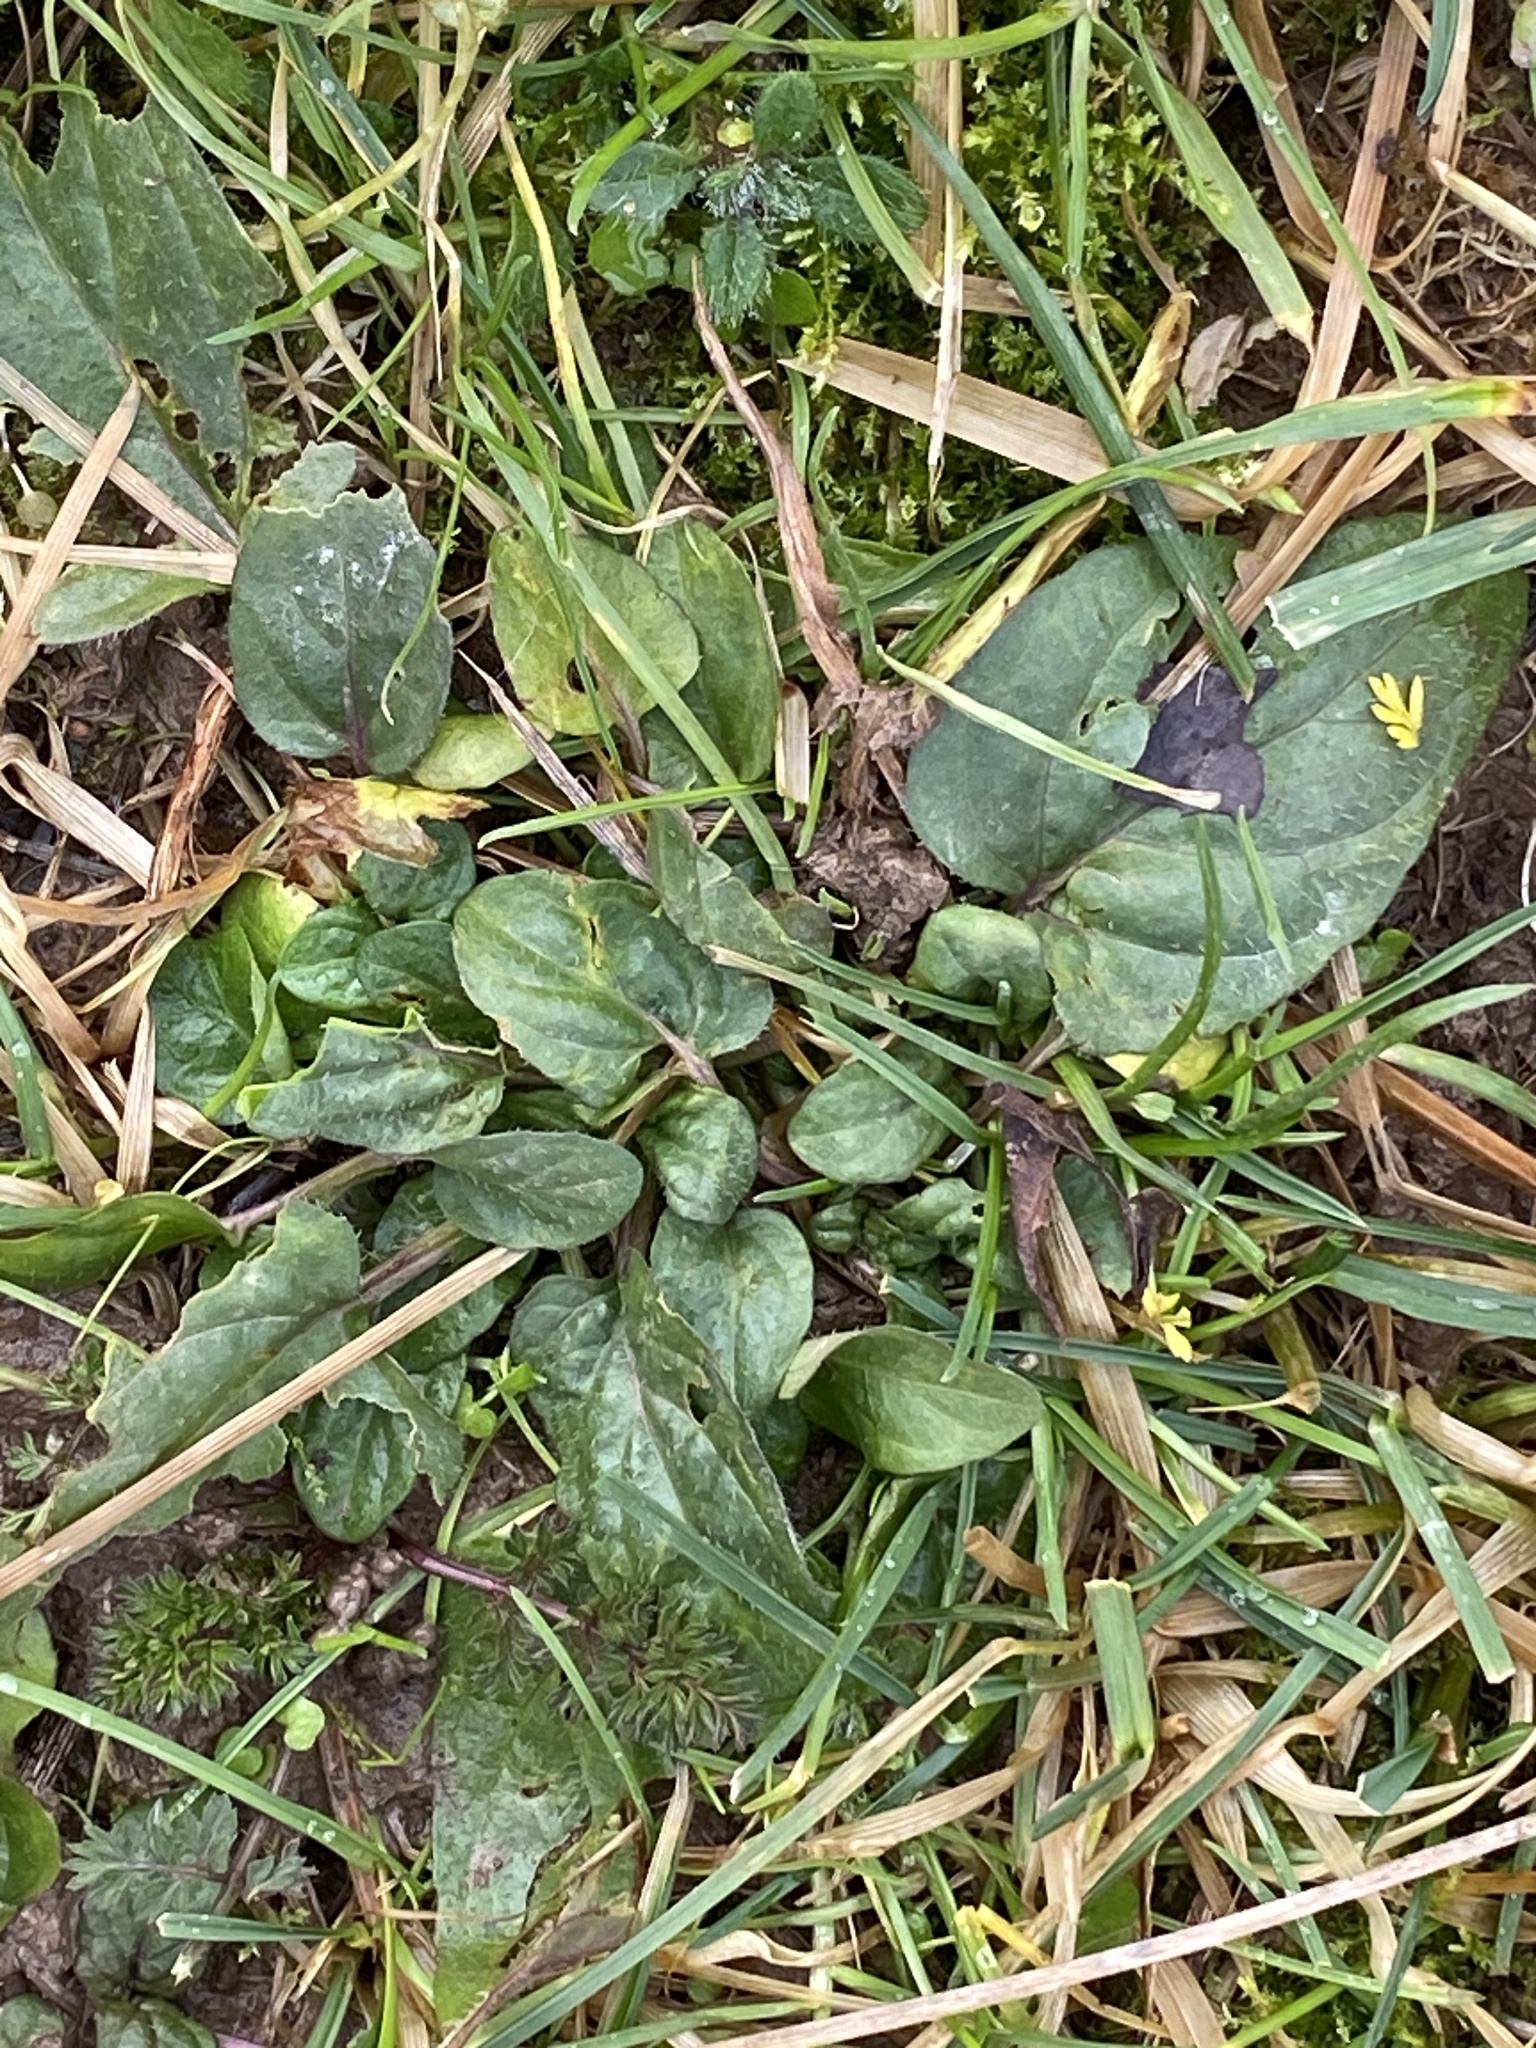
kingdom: Plantae
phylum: Tracheophyta
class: Magnoliopsida
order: Lamiales
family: Lamiaceae
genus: Prunella
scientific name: Prunella vulgaris
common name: Heal-all
